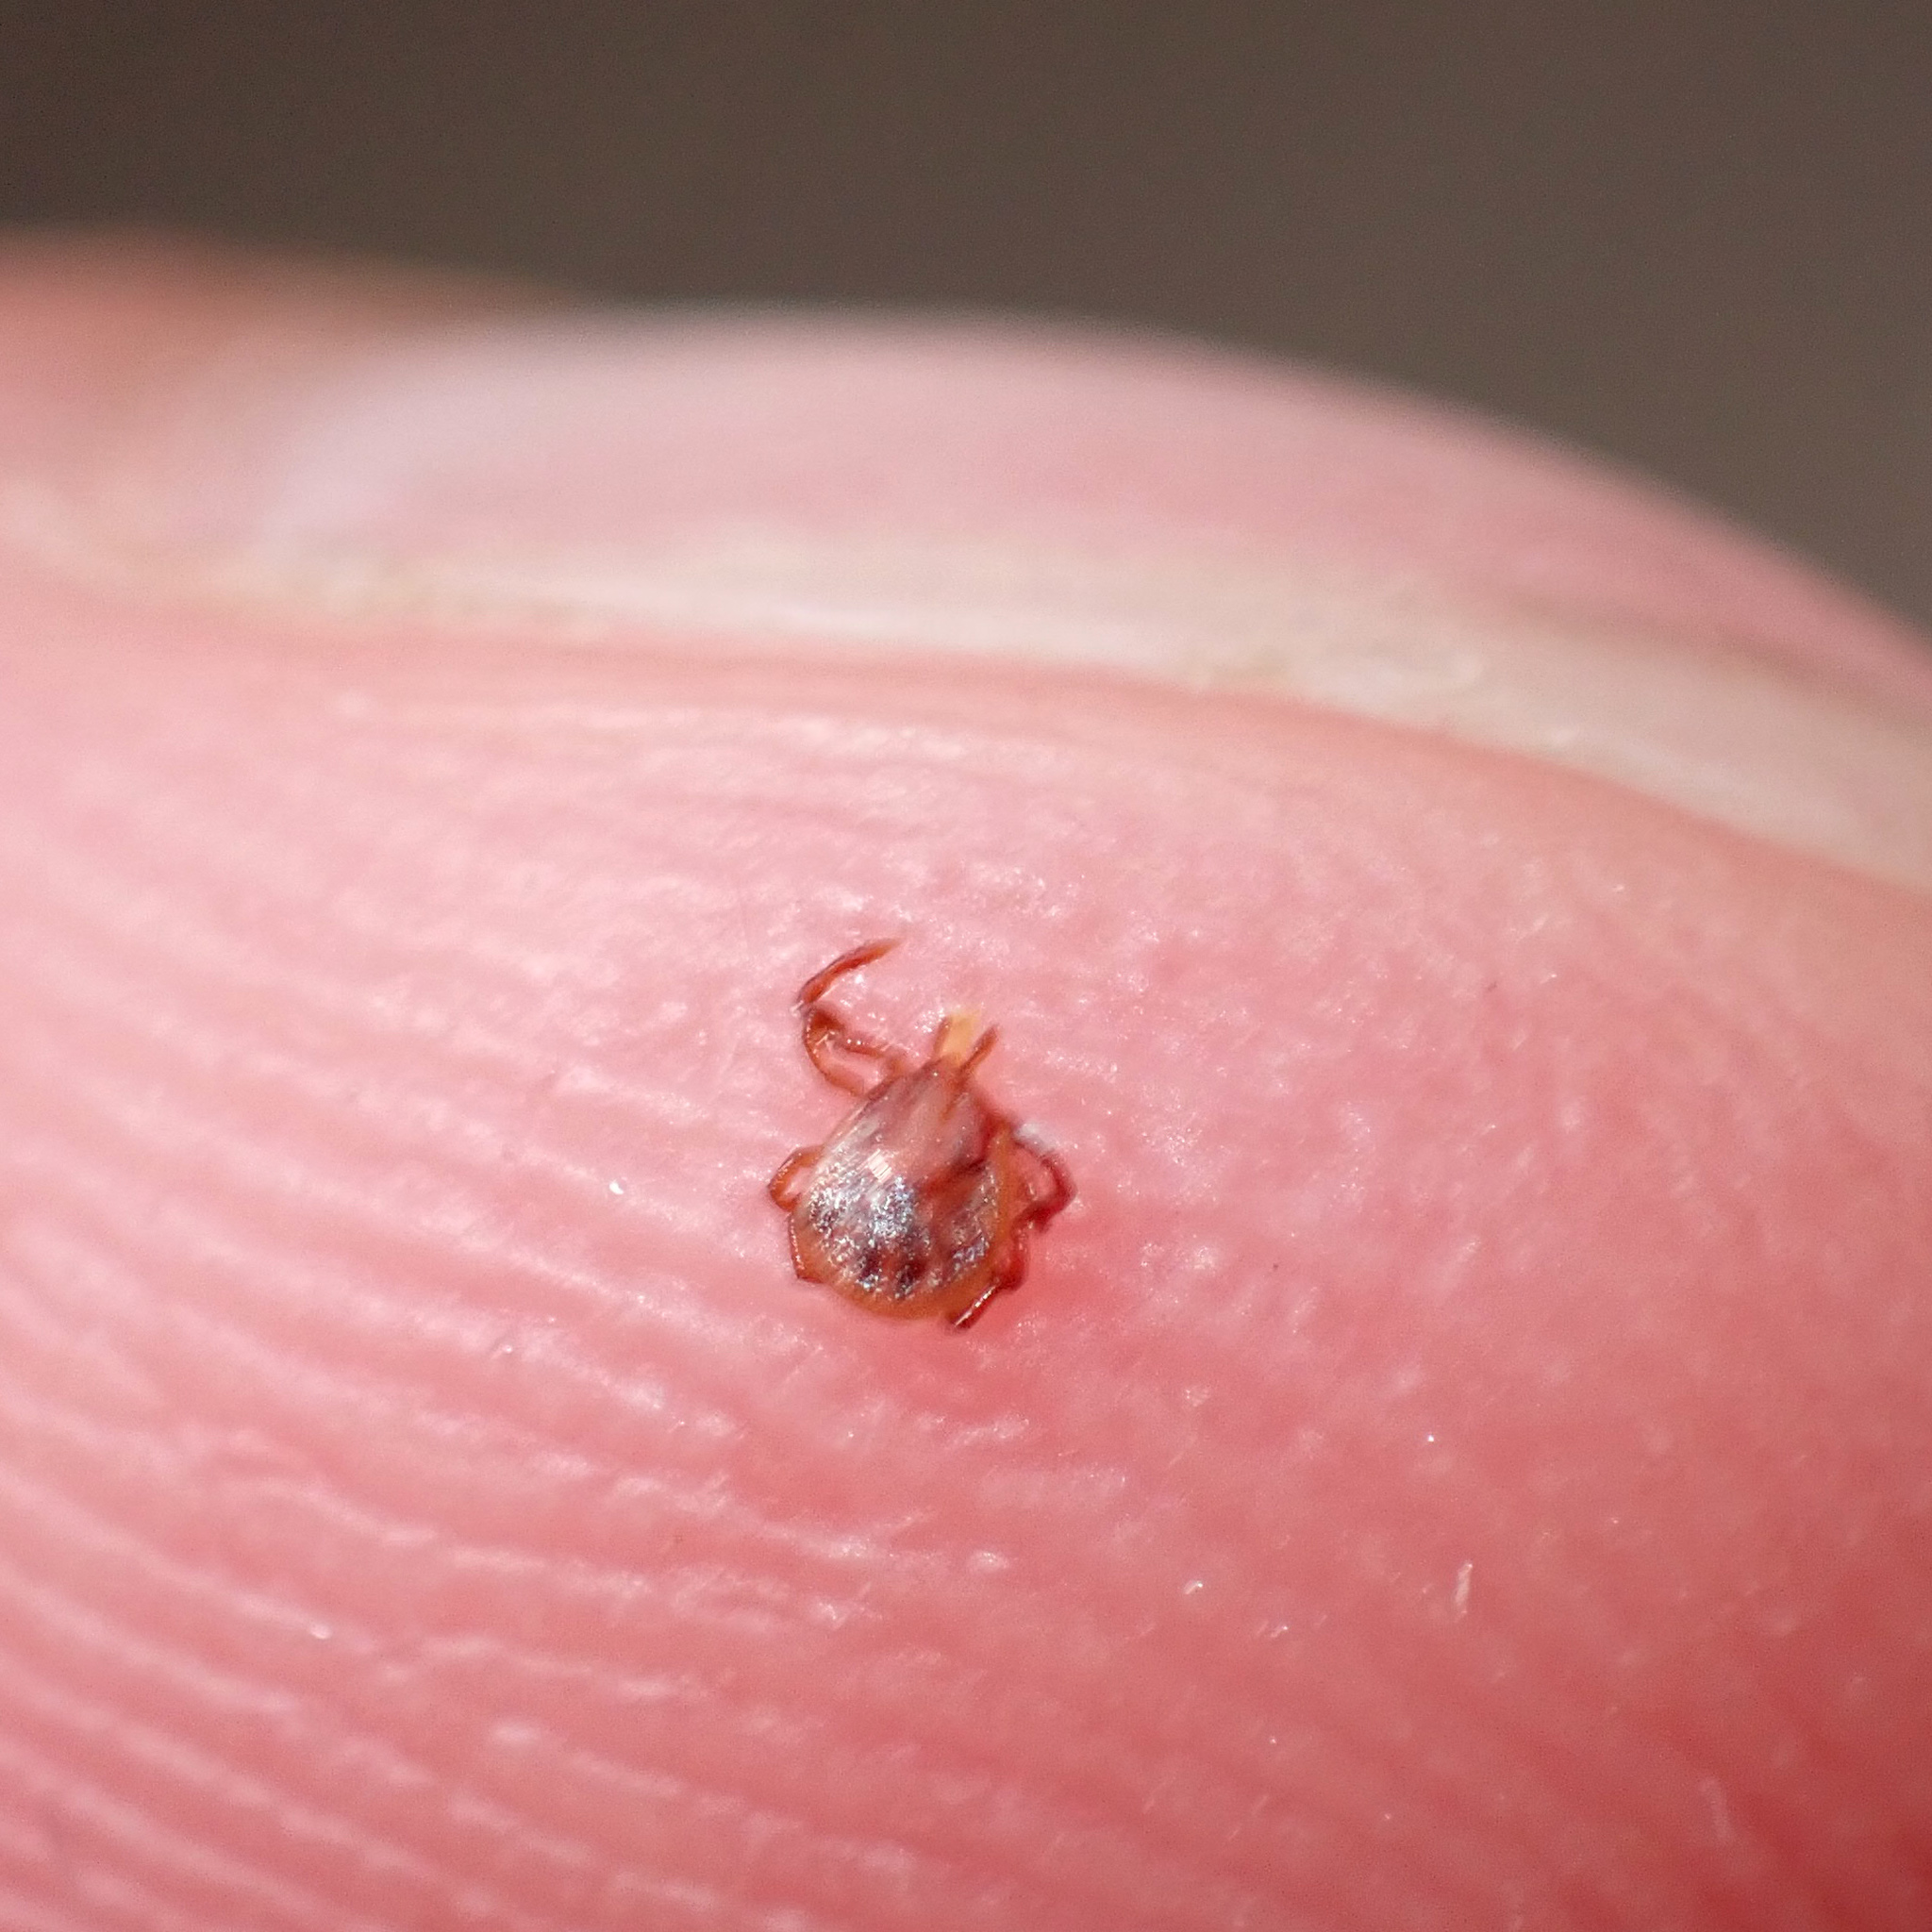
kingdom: Animalia
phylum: Arthropoda
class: Arachnida
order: Ixodida
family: Ixodidae
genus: Amblyomma
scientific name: Amblyomma americanum
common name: Lone star tick
